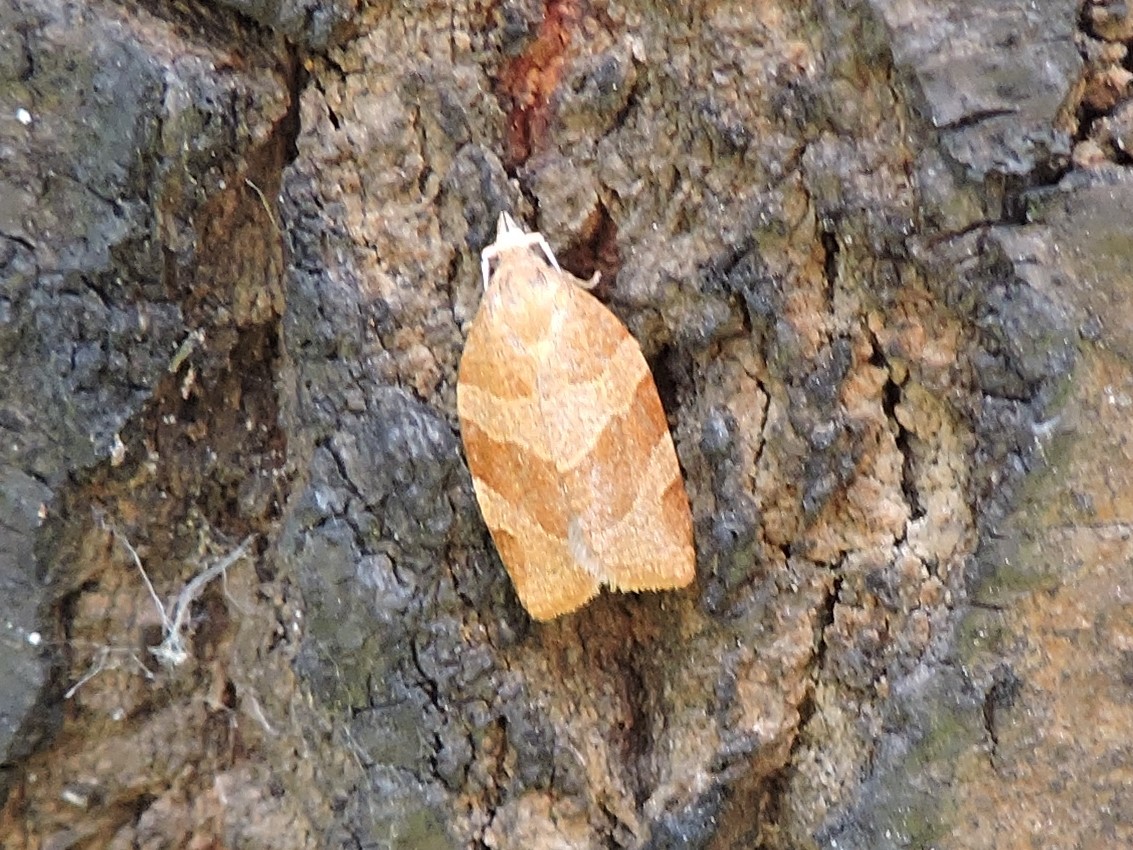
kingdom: Animalia
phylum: Arthropoda
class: Insecta
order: Lepidoptera
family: Tortricidae
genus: Pandemis
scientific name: Pandemis cerasana
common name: Barred fruit-tree tortrix
